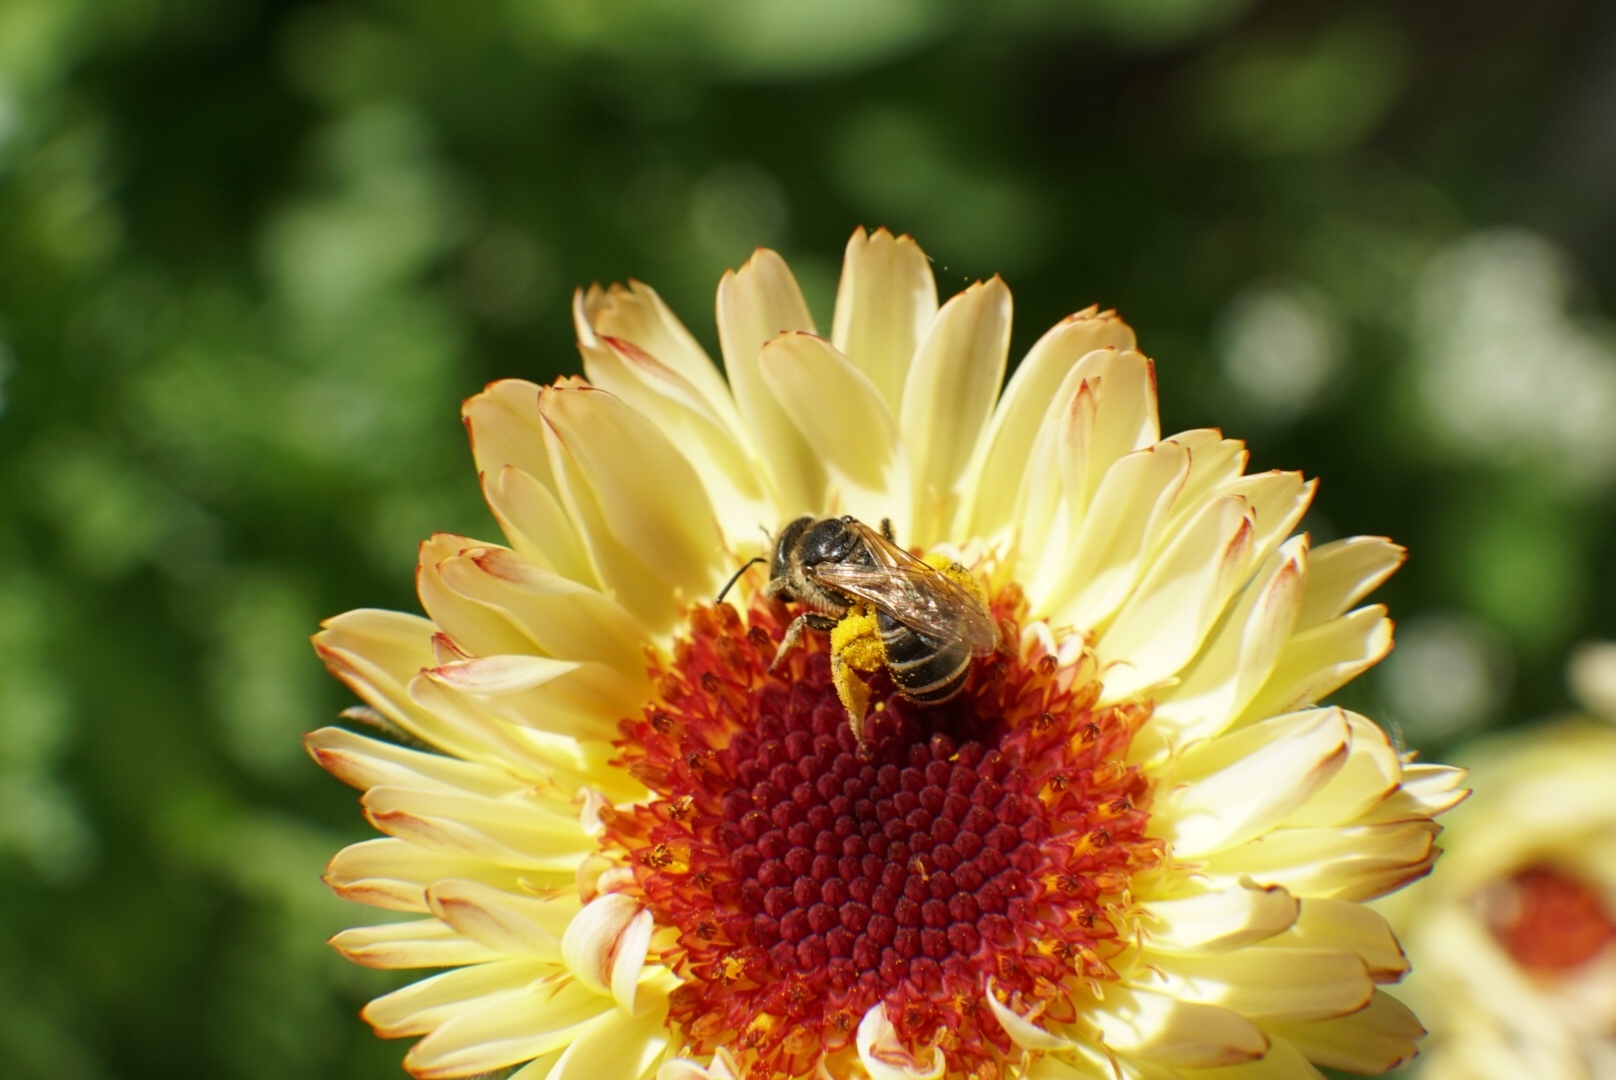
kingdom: Animalia
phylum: Arthropoda
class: Insecta
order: Hymenoptera
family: Halictidae
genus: Halictus
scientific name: Halictus ligatus
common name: Ligated furrow bee
